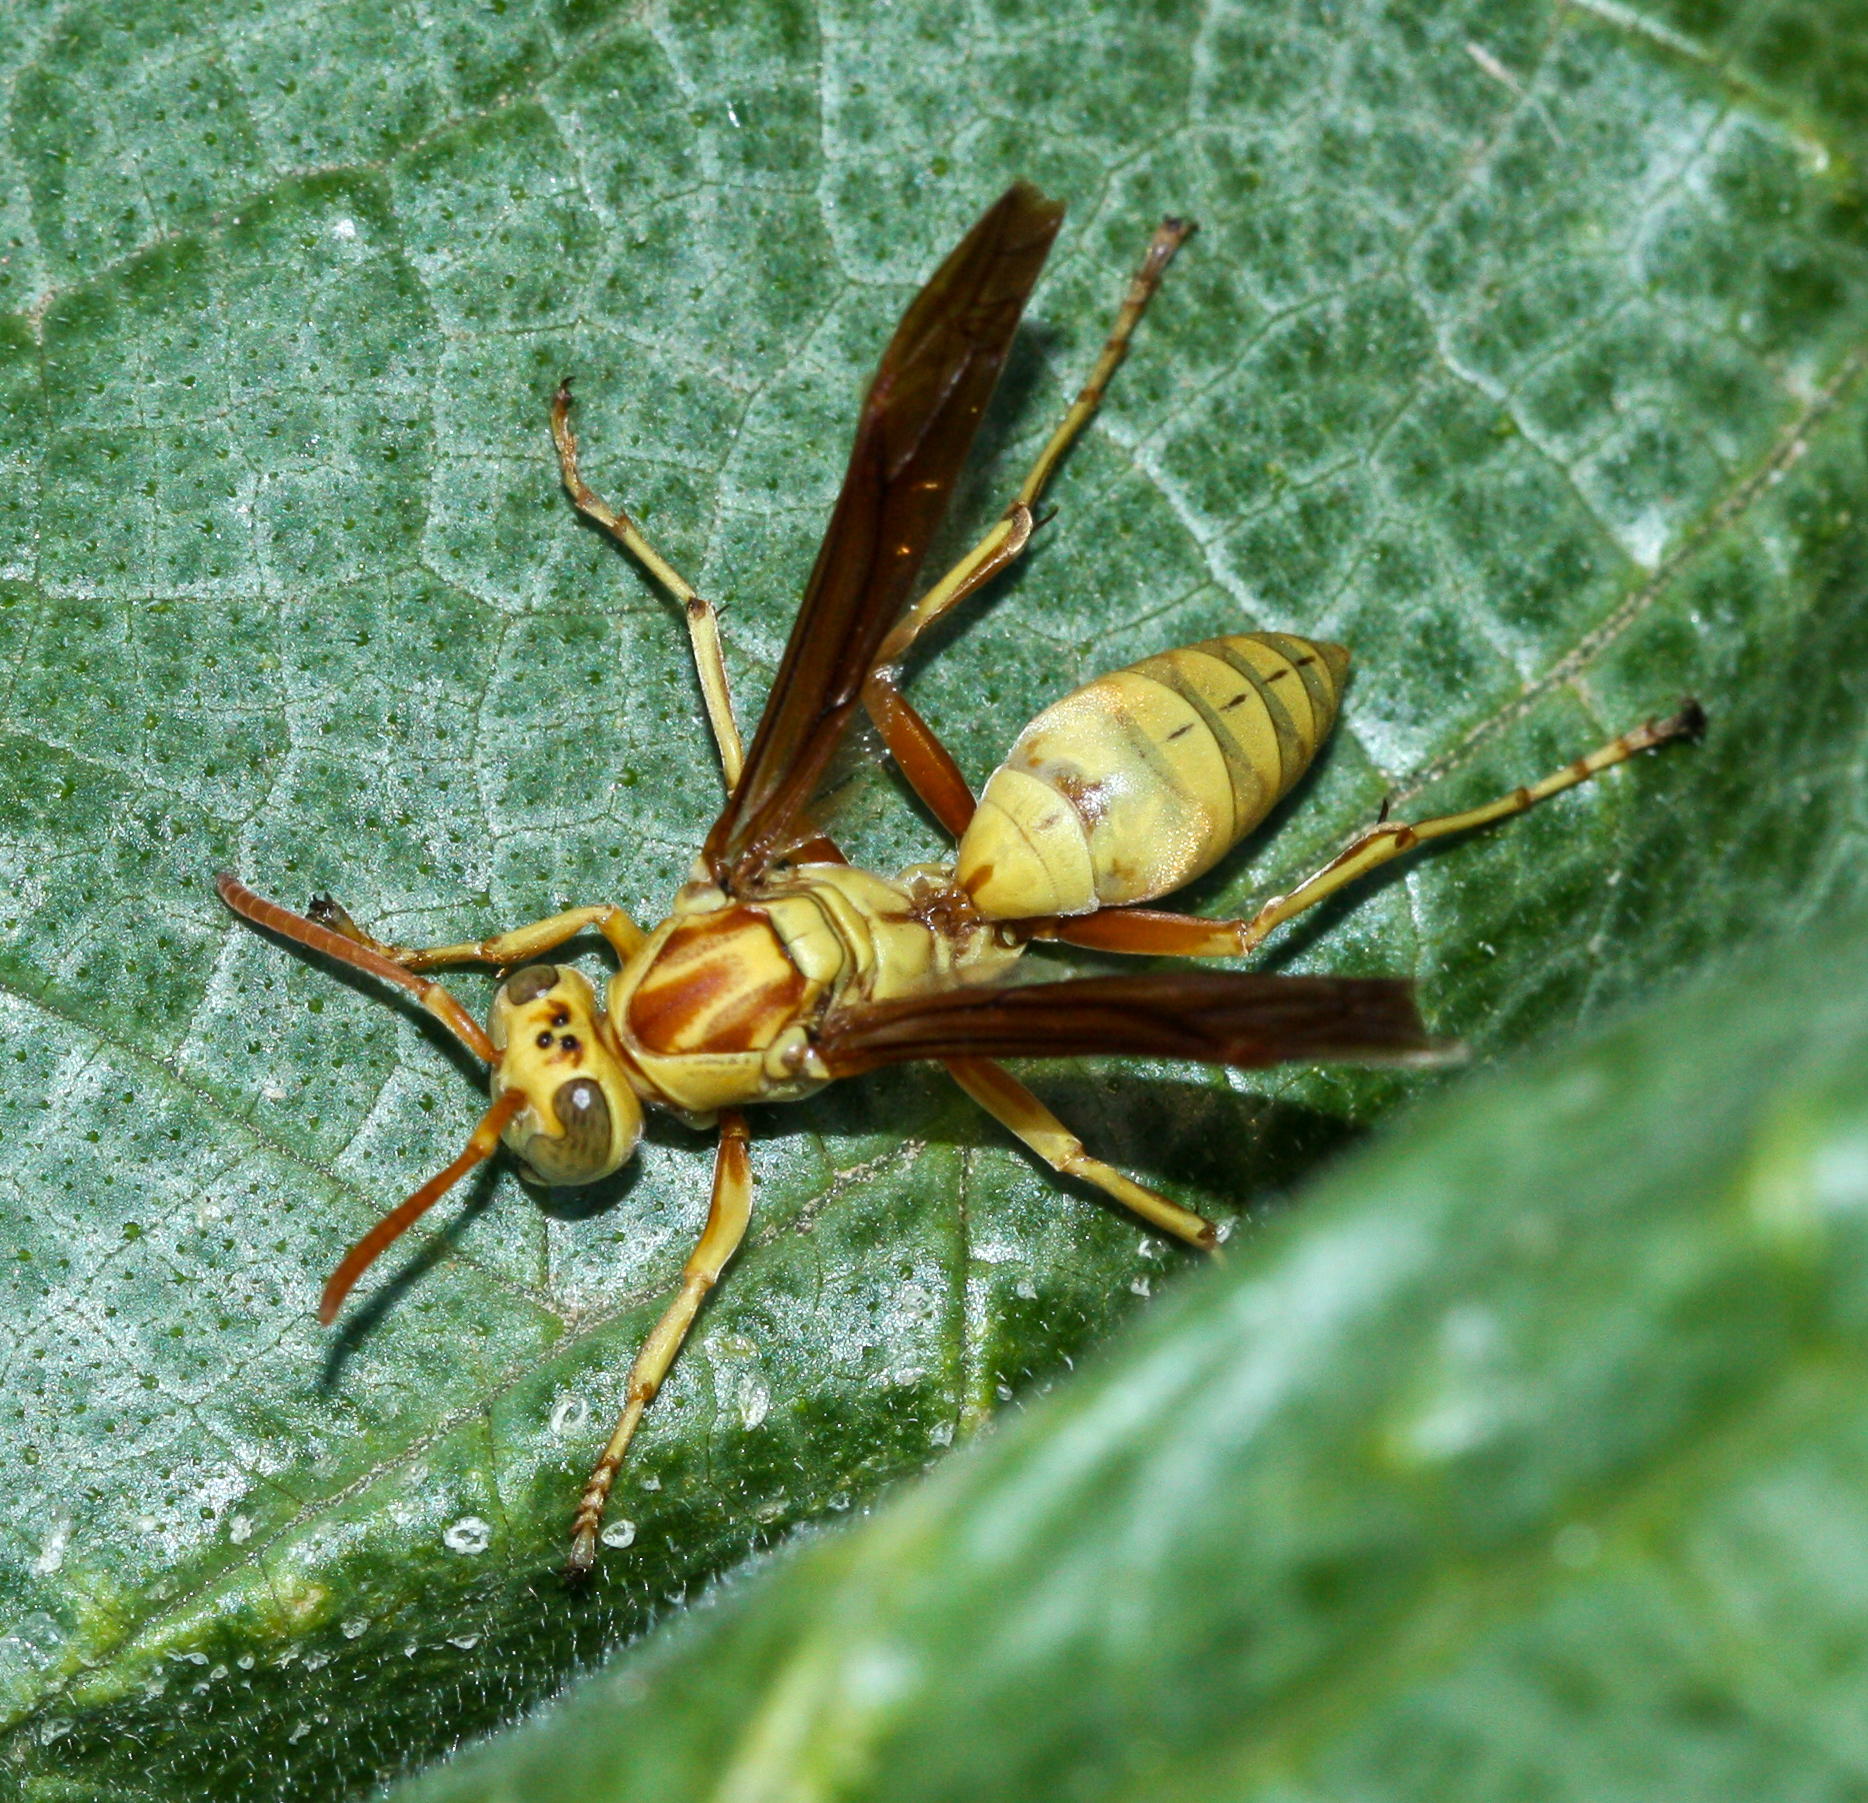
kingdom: Animalia
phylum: Arthropoda
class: Insecta
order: Hymenoptera
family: Eumenidae
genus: Polistes
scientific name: Polistes aurifer
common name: Paper wasp
